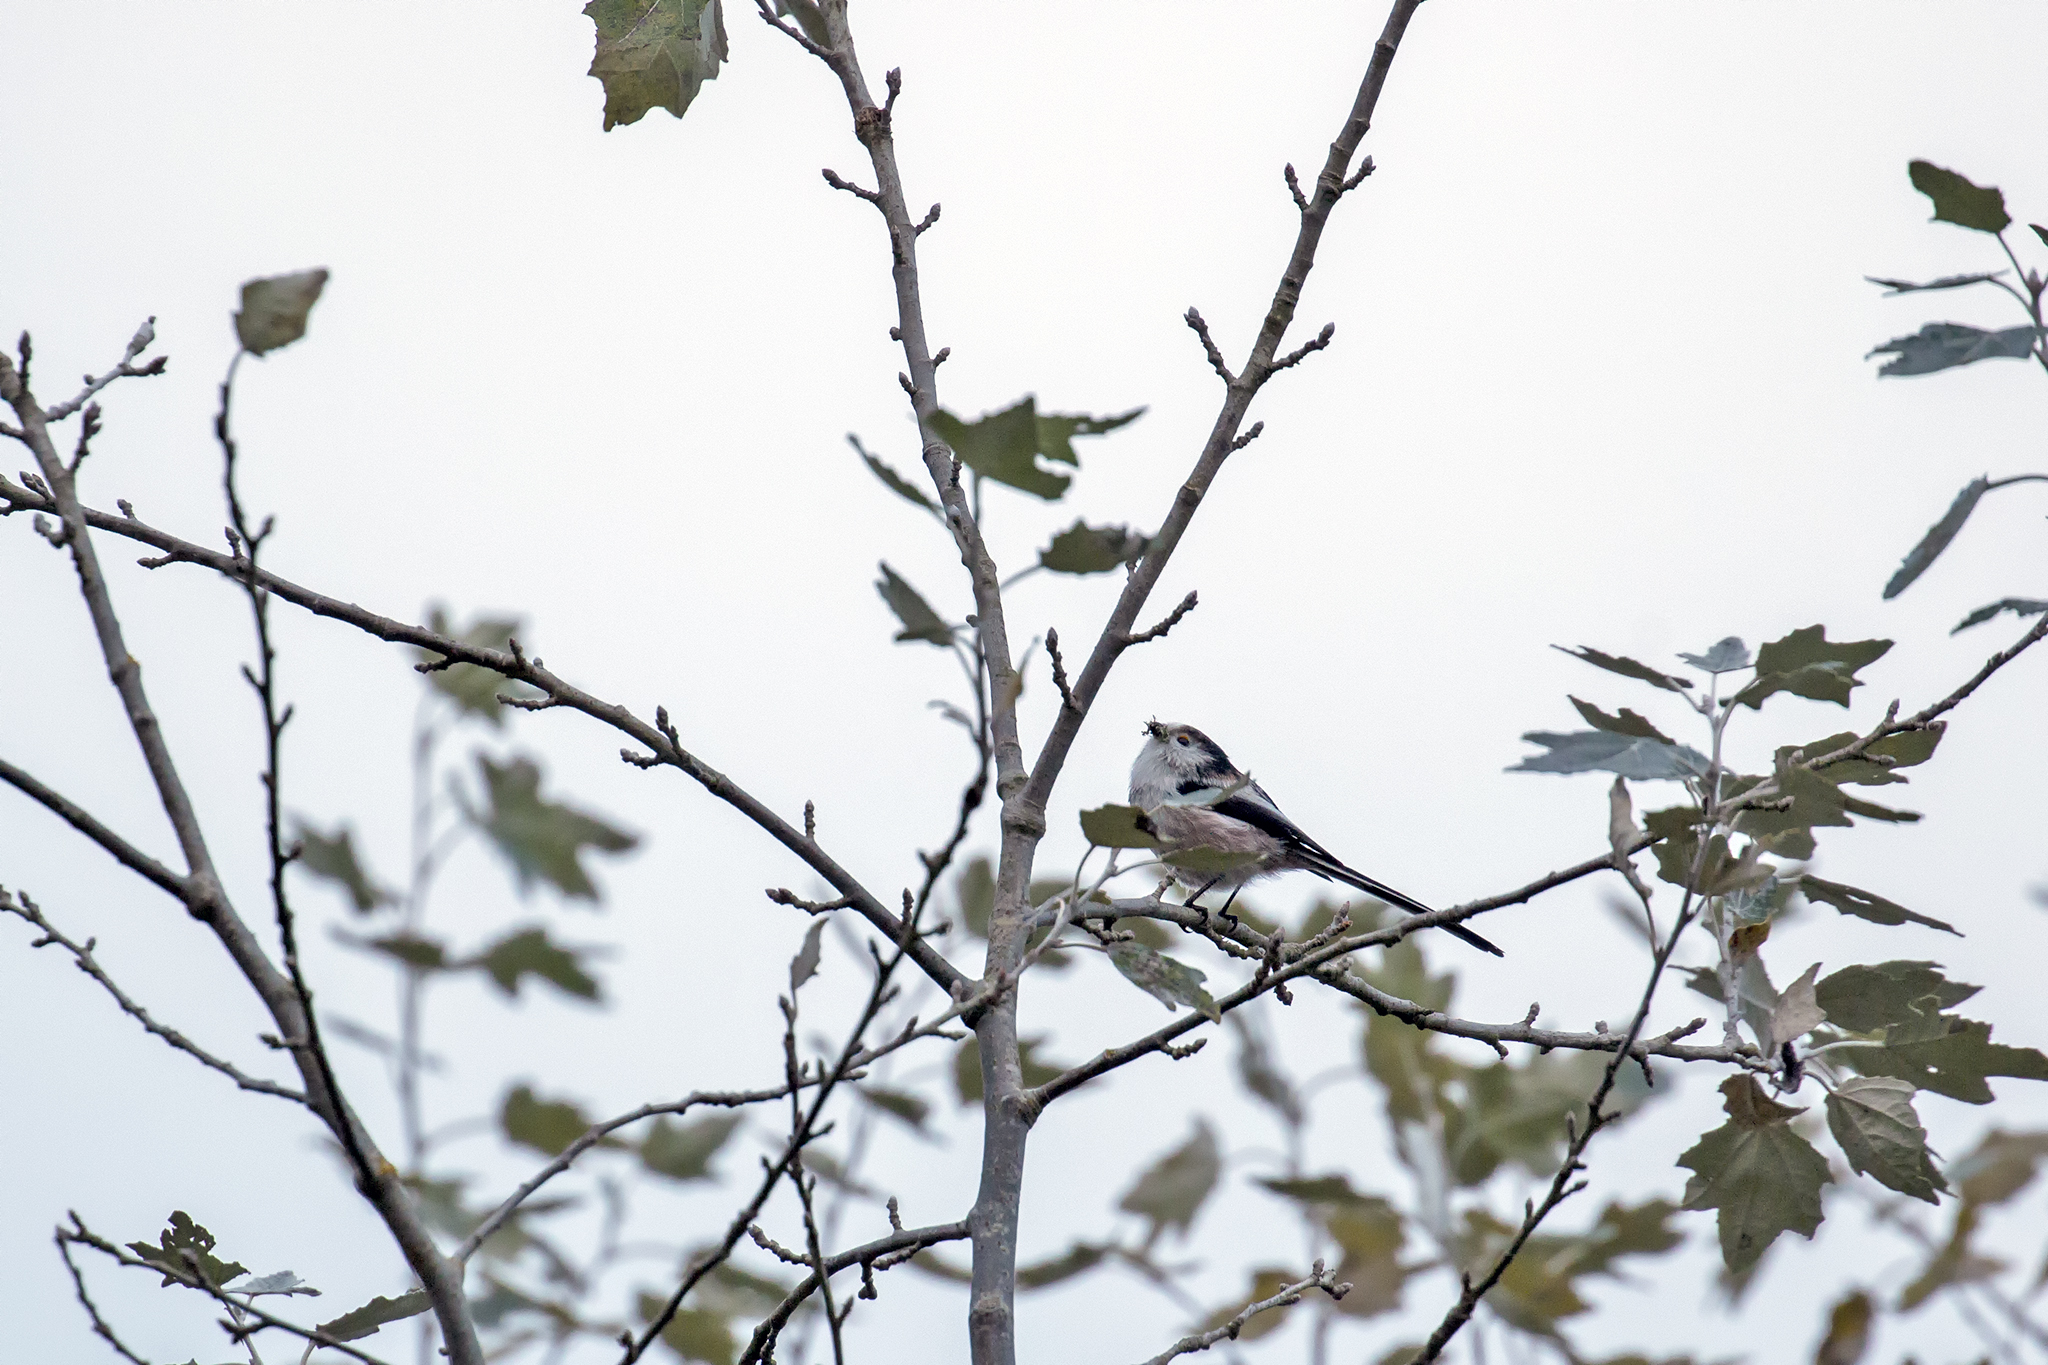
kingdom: Animalia
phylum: Chordata
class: Aves
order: Passeriformes
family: Aegithalidae
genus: Aegithalos
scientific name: Aegithalos caudatus
